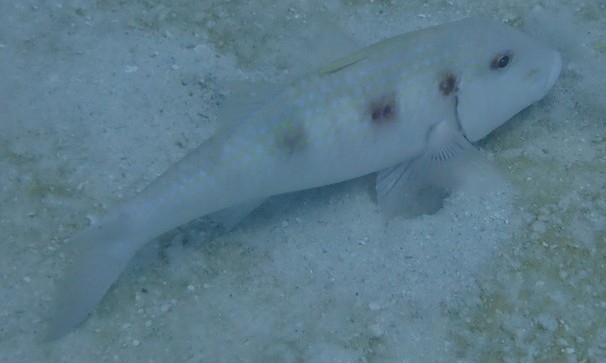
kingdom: Animalia
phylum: Chordata
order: Perciformes
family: Mullidae
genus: Pseudupeneus
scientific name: Pseudupeneus maculatus
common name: Spotted goatfish
